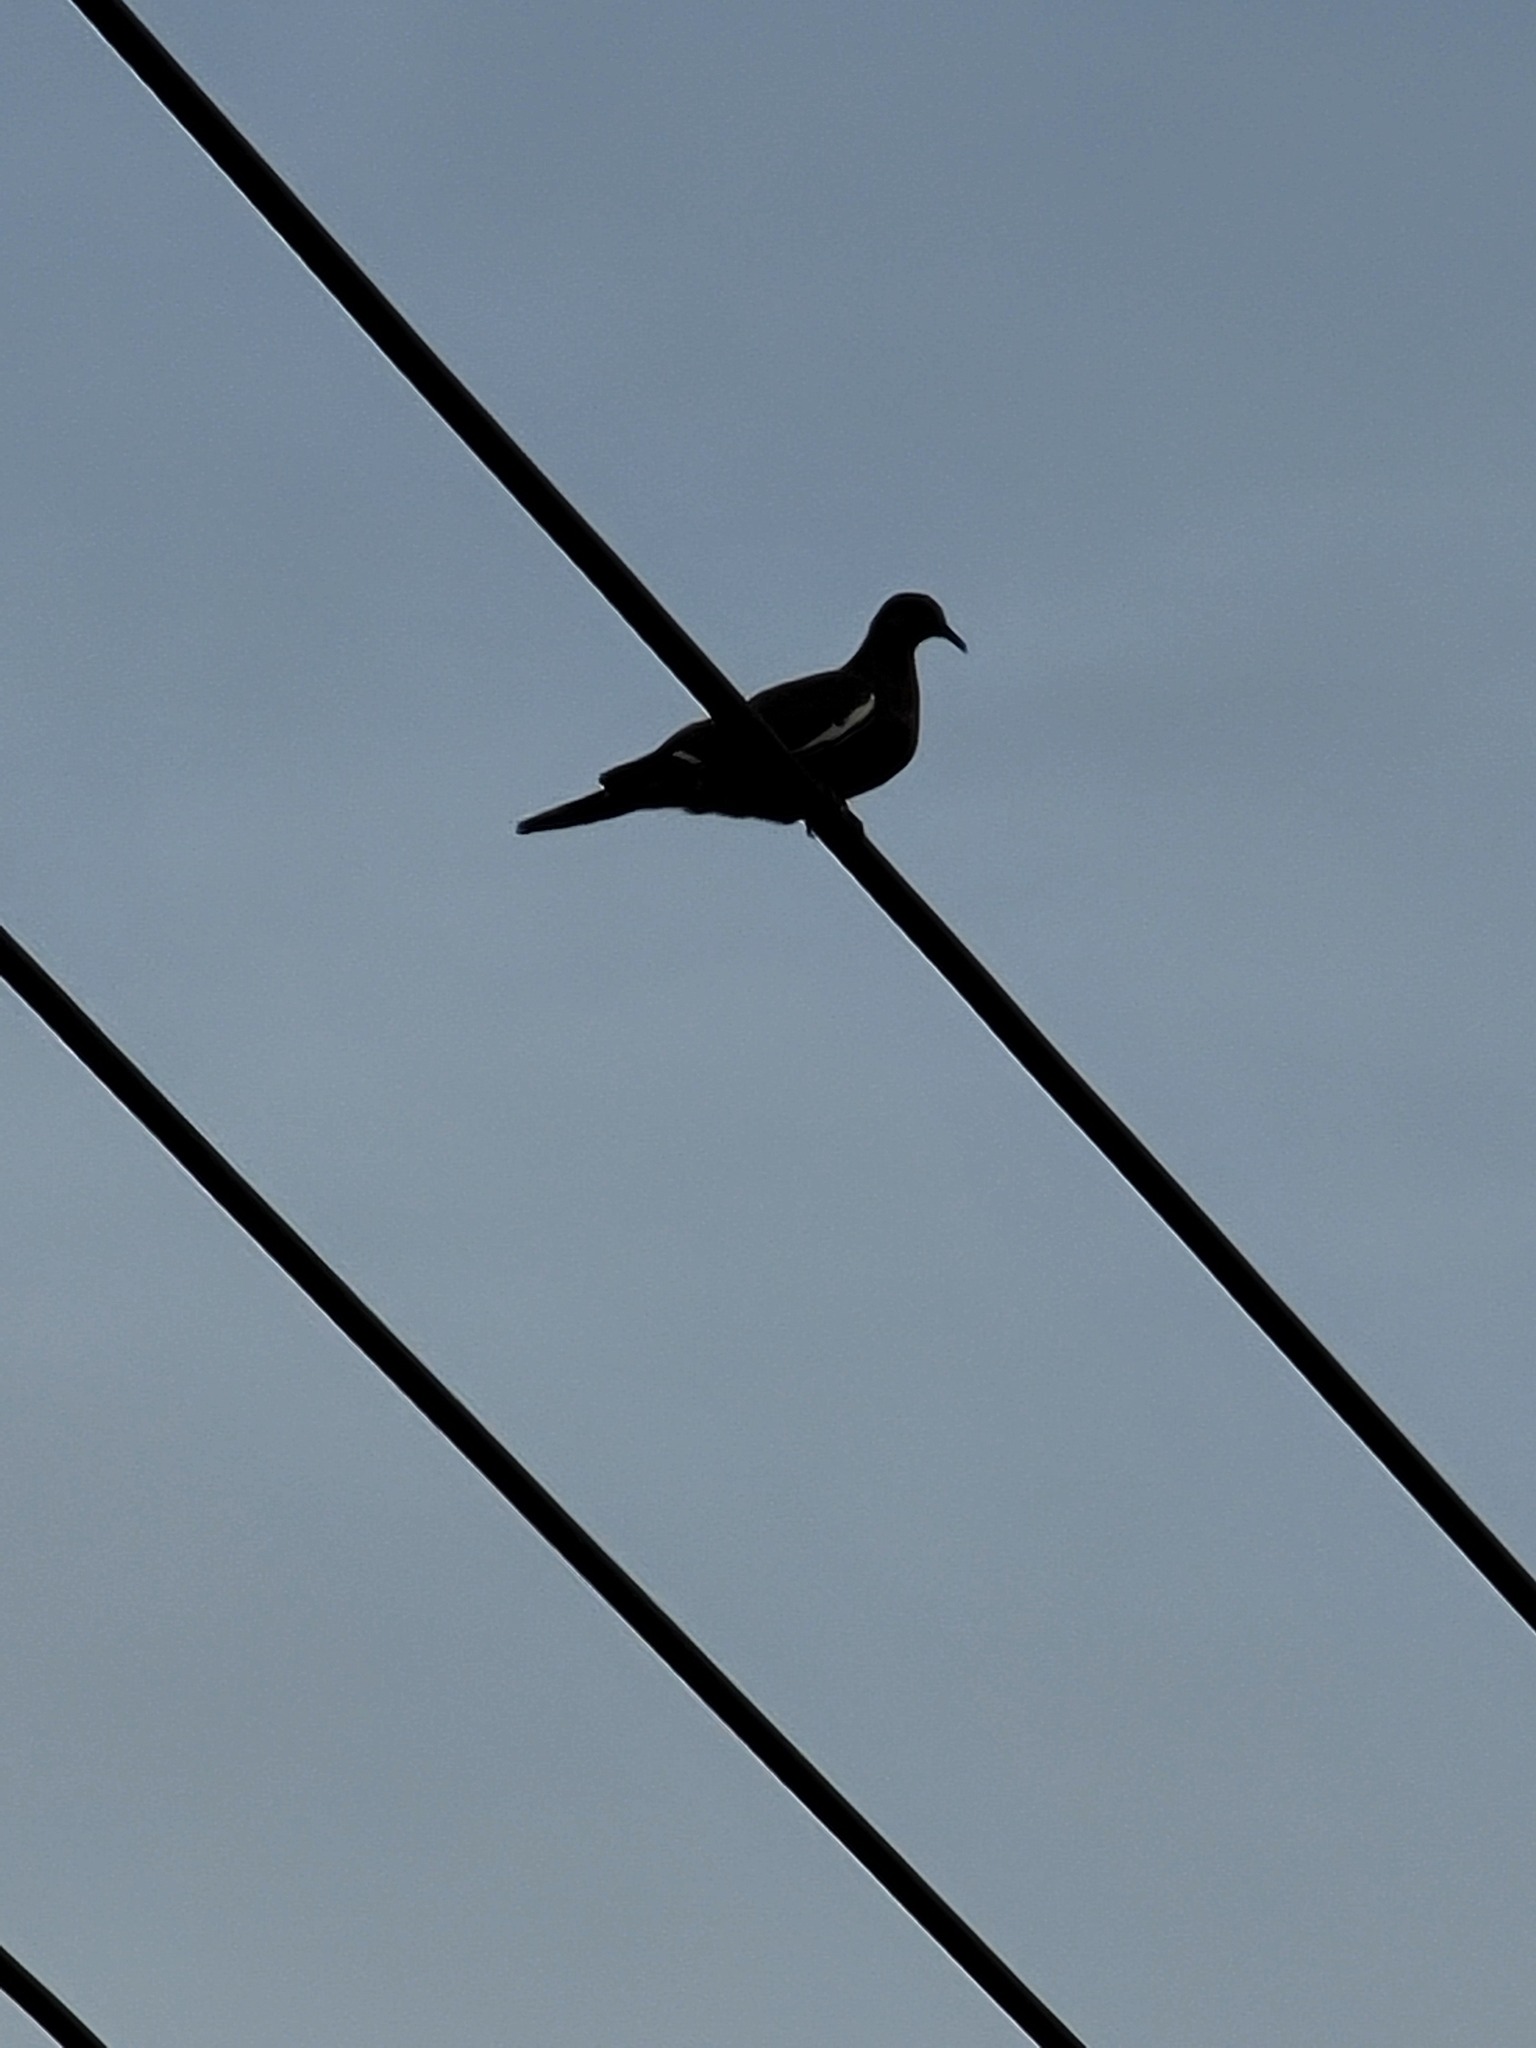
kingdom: Animalia
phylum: Chordata
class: Aves
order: Columbiformes
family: Columbidae
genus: Zenaida
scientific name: Zenaida asiatica
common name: White-winged dove
